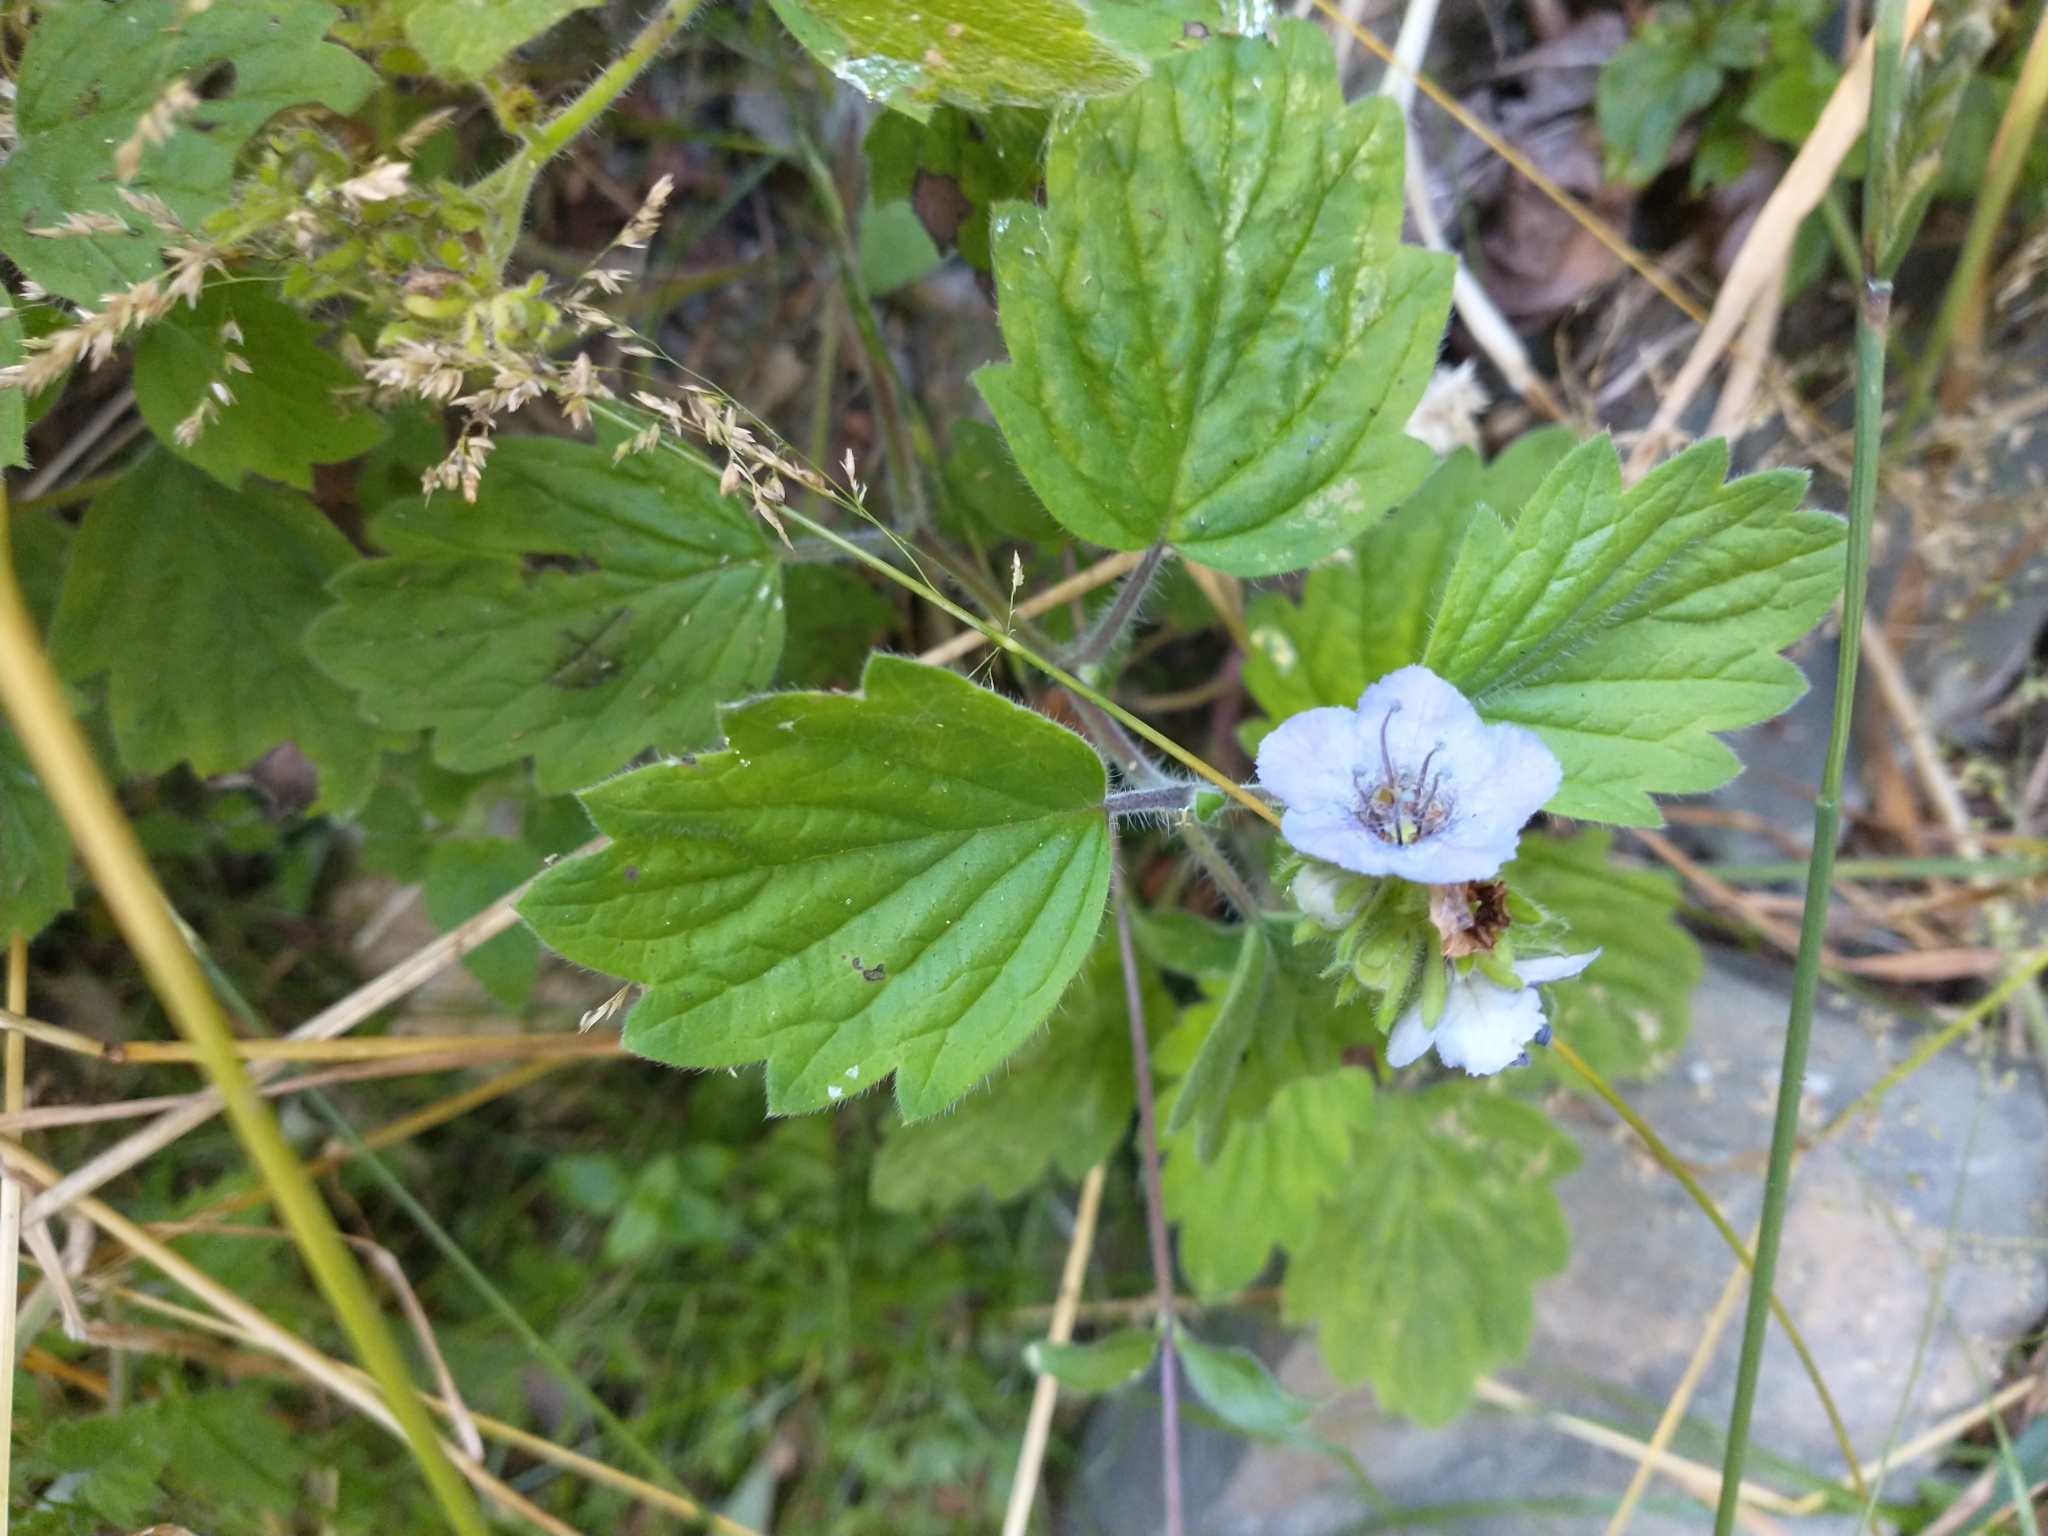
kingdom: Plantae
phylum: Tracheophyta
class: Magnoliopsida
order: Boraginales
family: Hydrophyllaceae
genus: Phacelia
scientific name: Phacelia bolanderi
